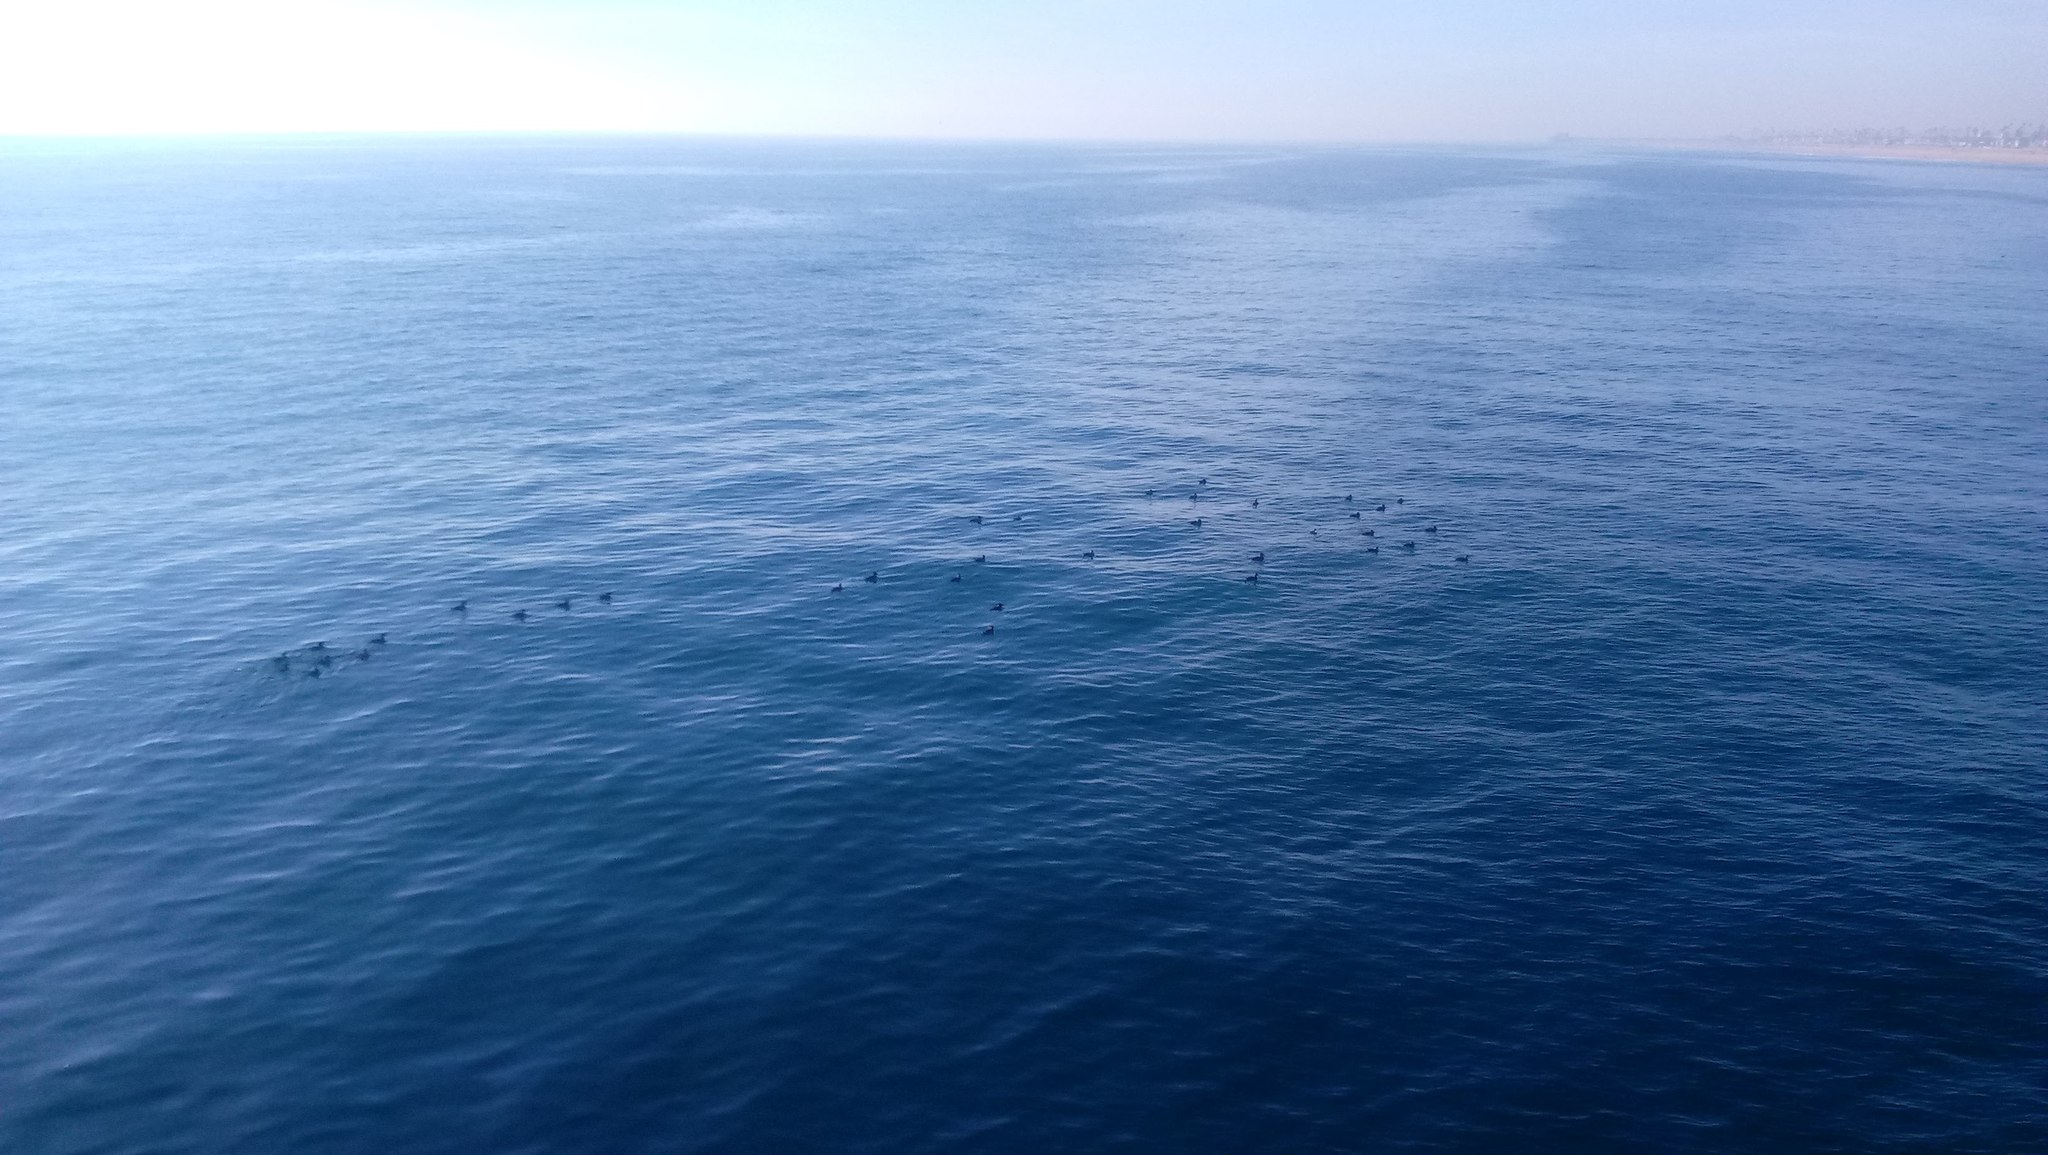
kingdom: Animalia
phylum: Chordata
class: Aves
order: Anseriformes
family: Anatidae
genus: Melanitta
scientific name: Melanitta perspicillata
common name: Surf scoter
